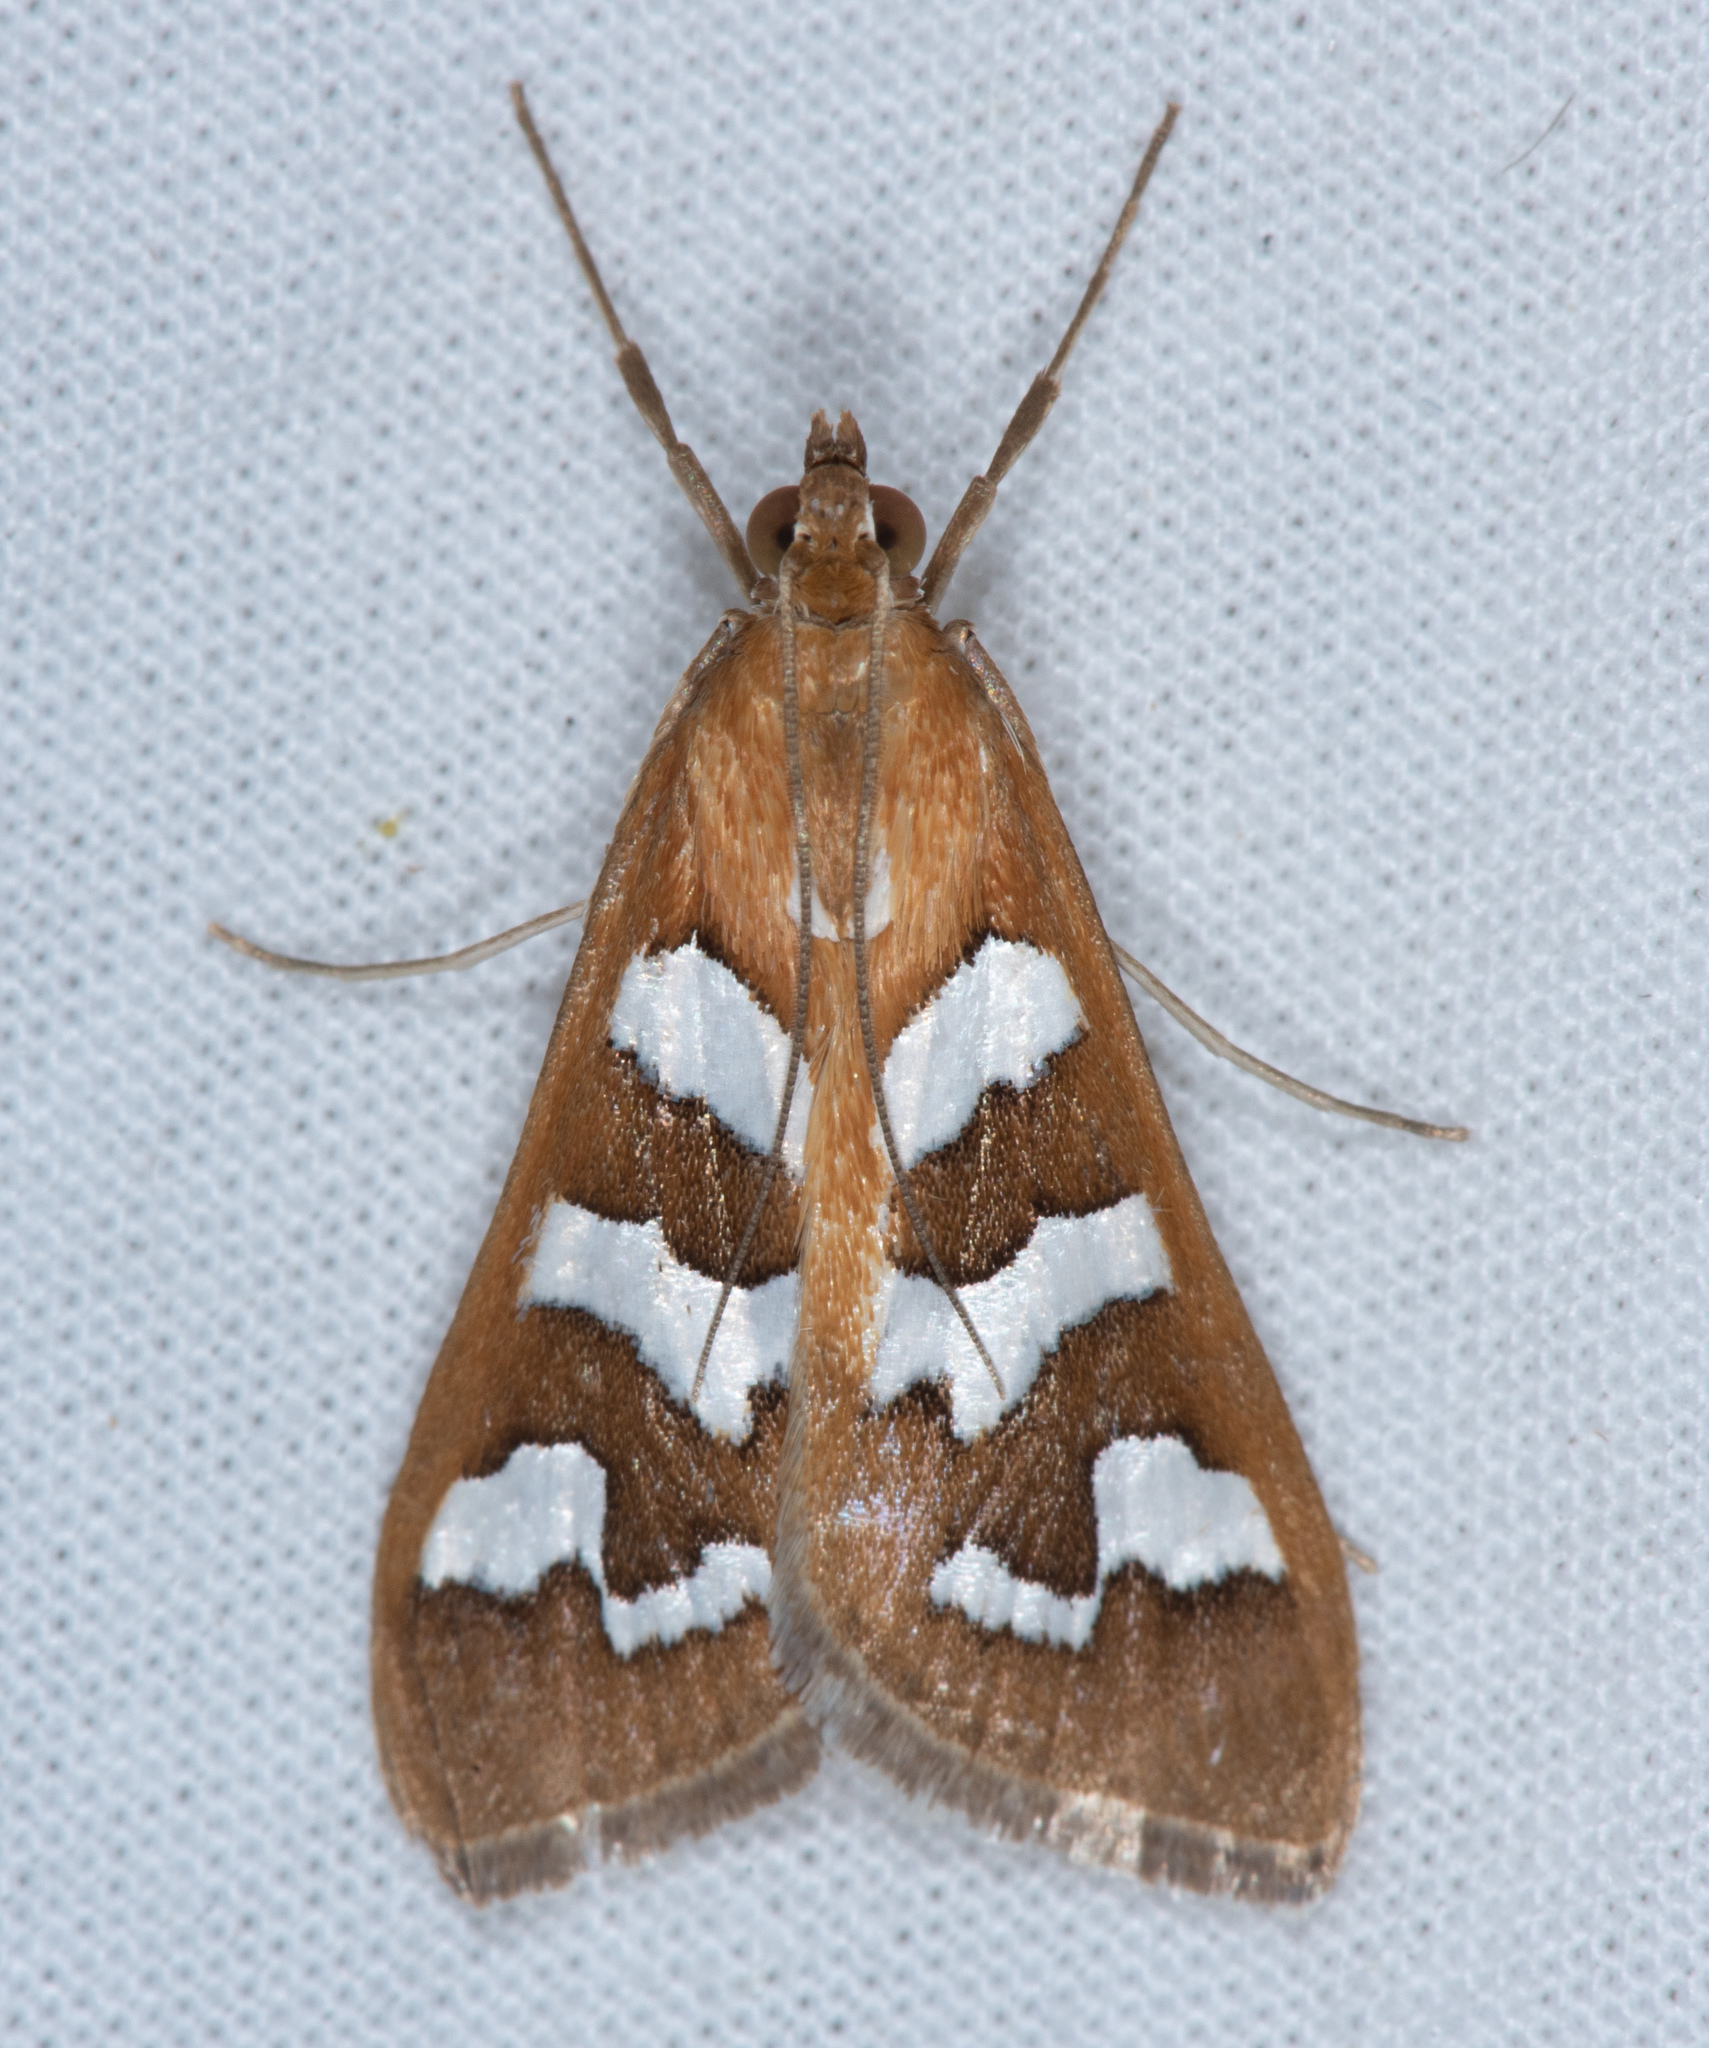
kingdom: Animalia
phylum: Arthropoda
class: Insecta
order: Lepidoptera
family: Crambidae
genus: Diastictis
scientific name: Diastictis fracturalis
